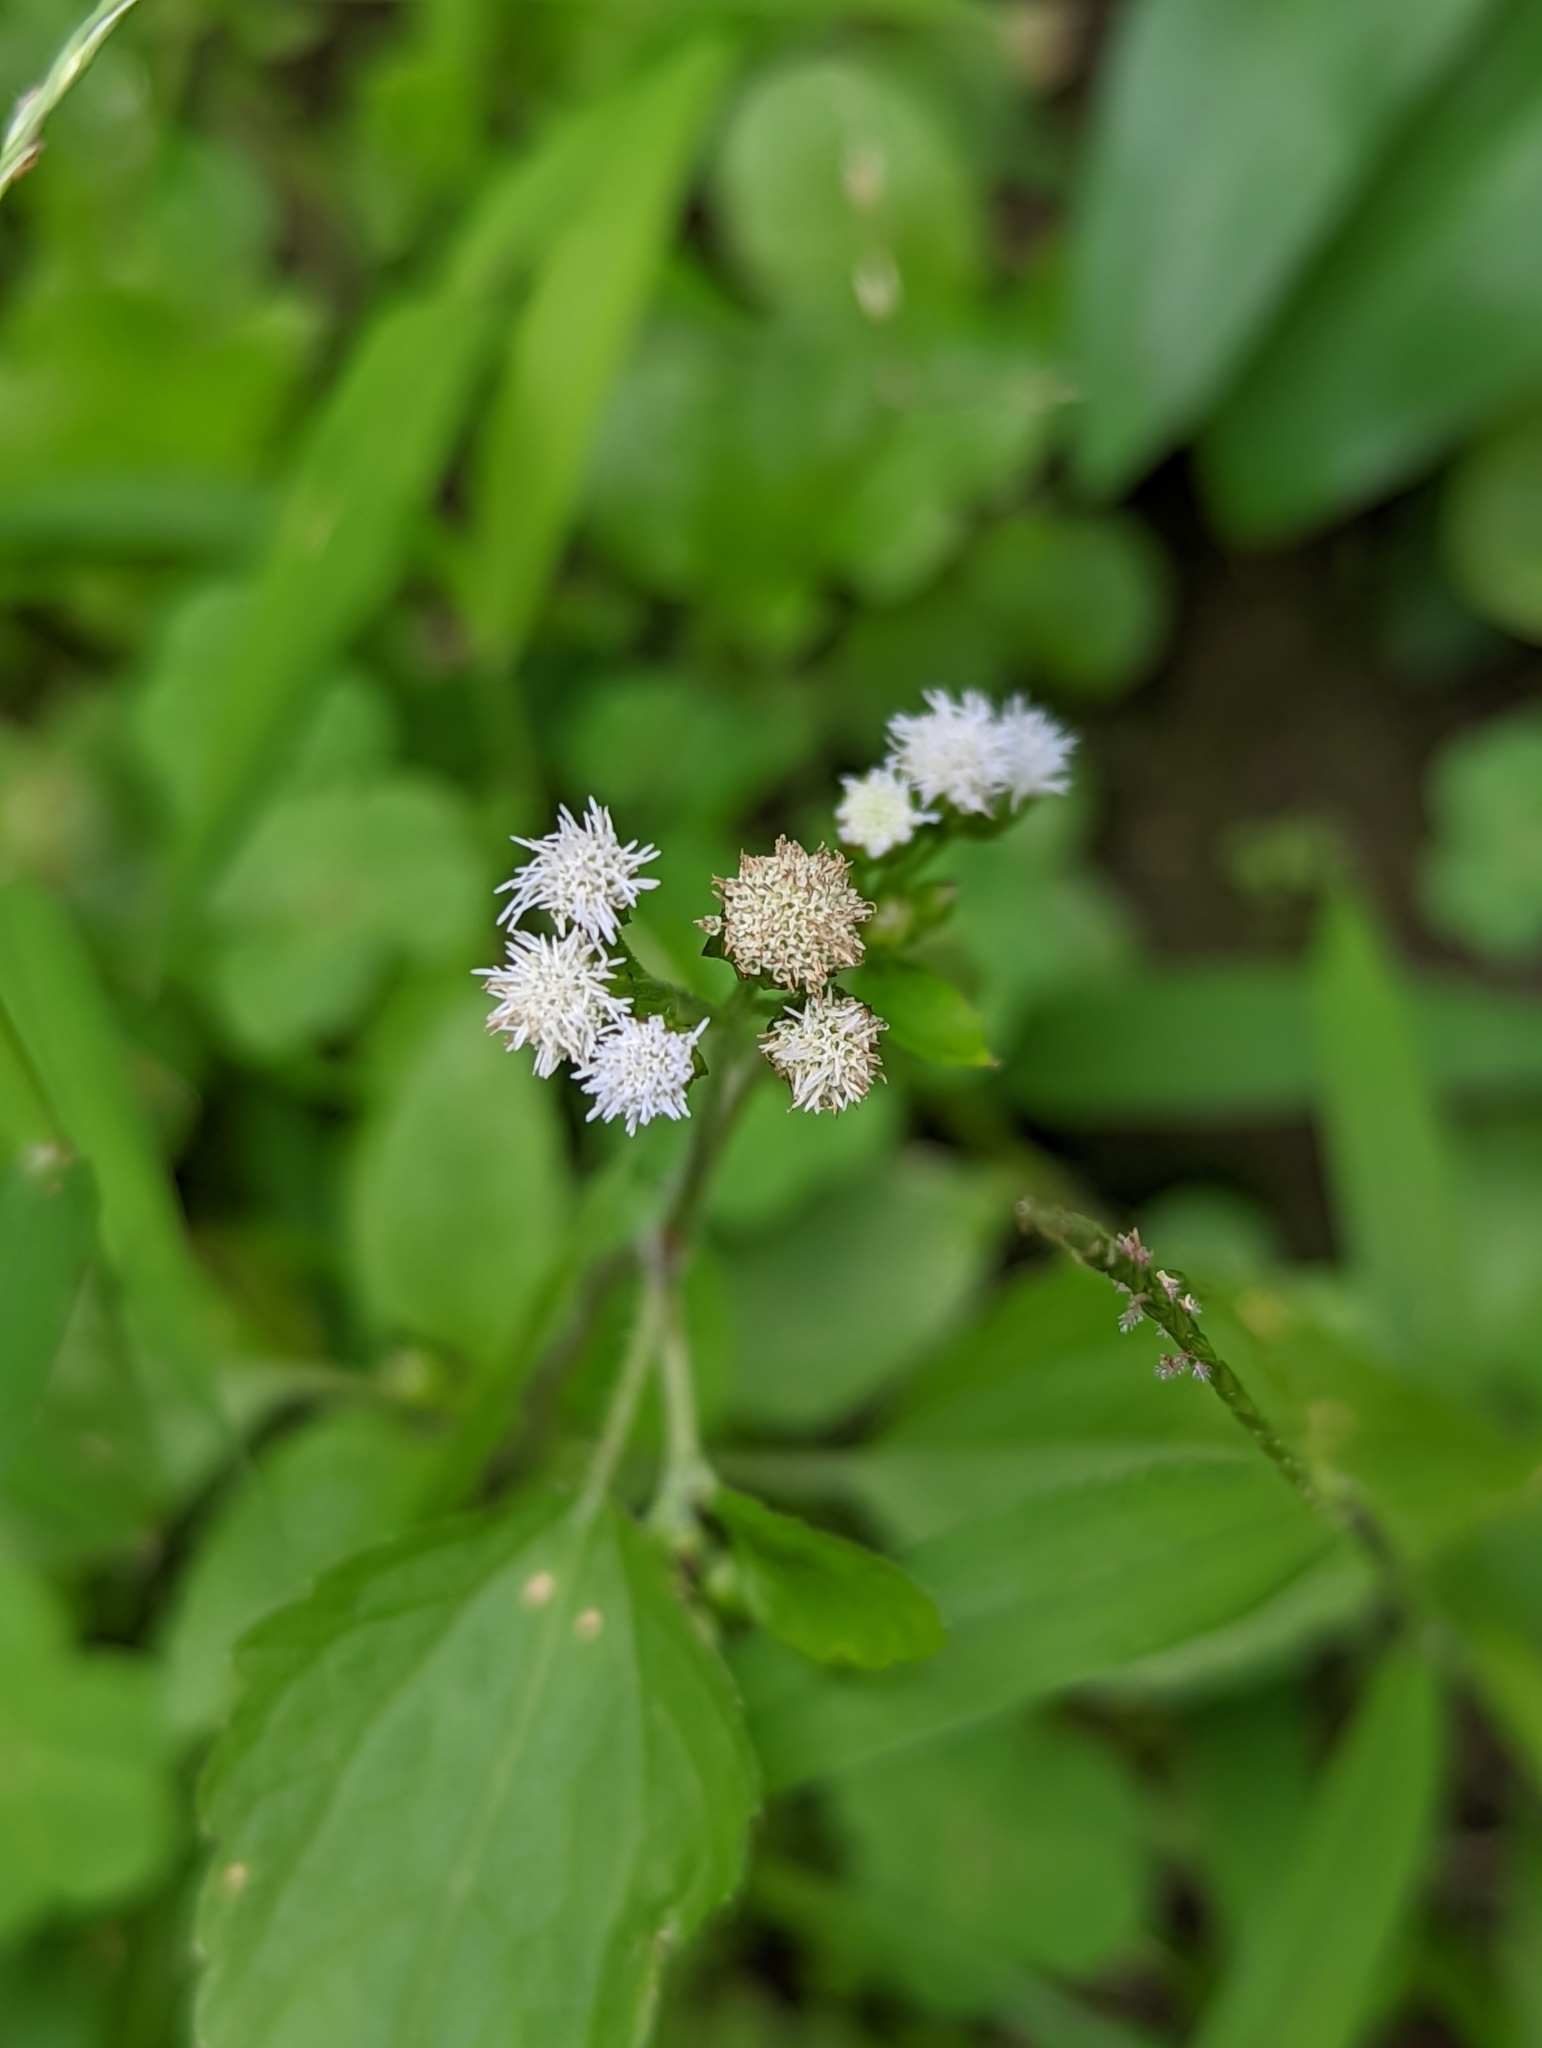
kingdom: Plantae
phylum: Tracheophyta
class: Magnoliopsida
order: Asterales
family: Asteraceae
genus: Ageratum
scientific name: Ageratum conyzoides
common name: Tropical whiteweed
